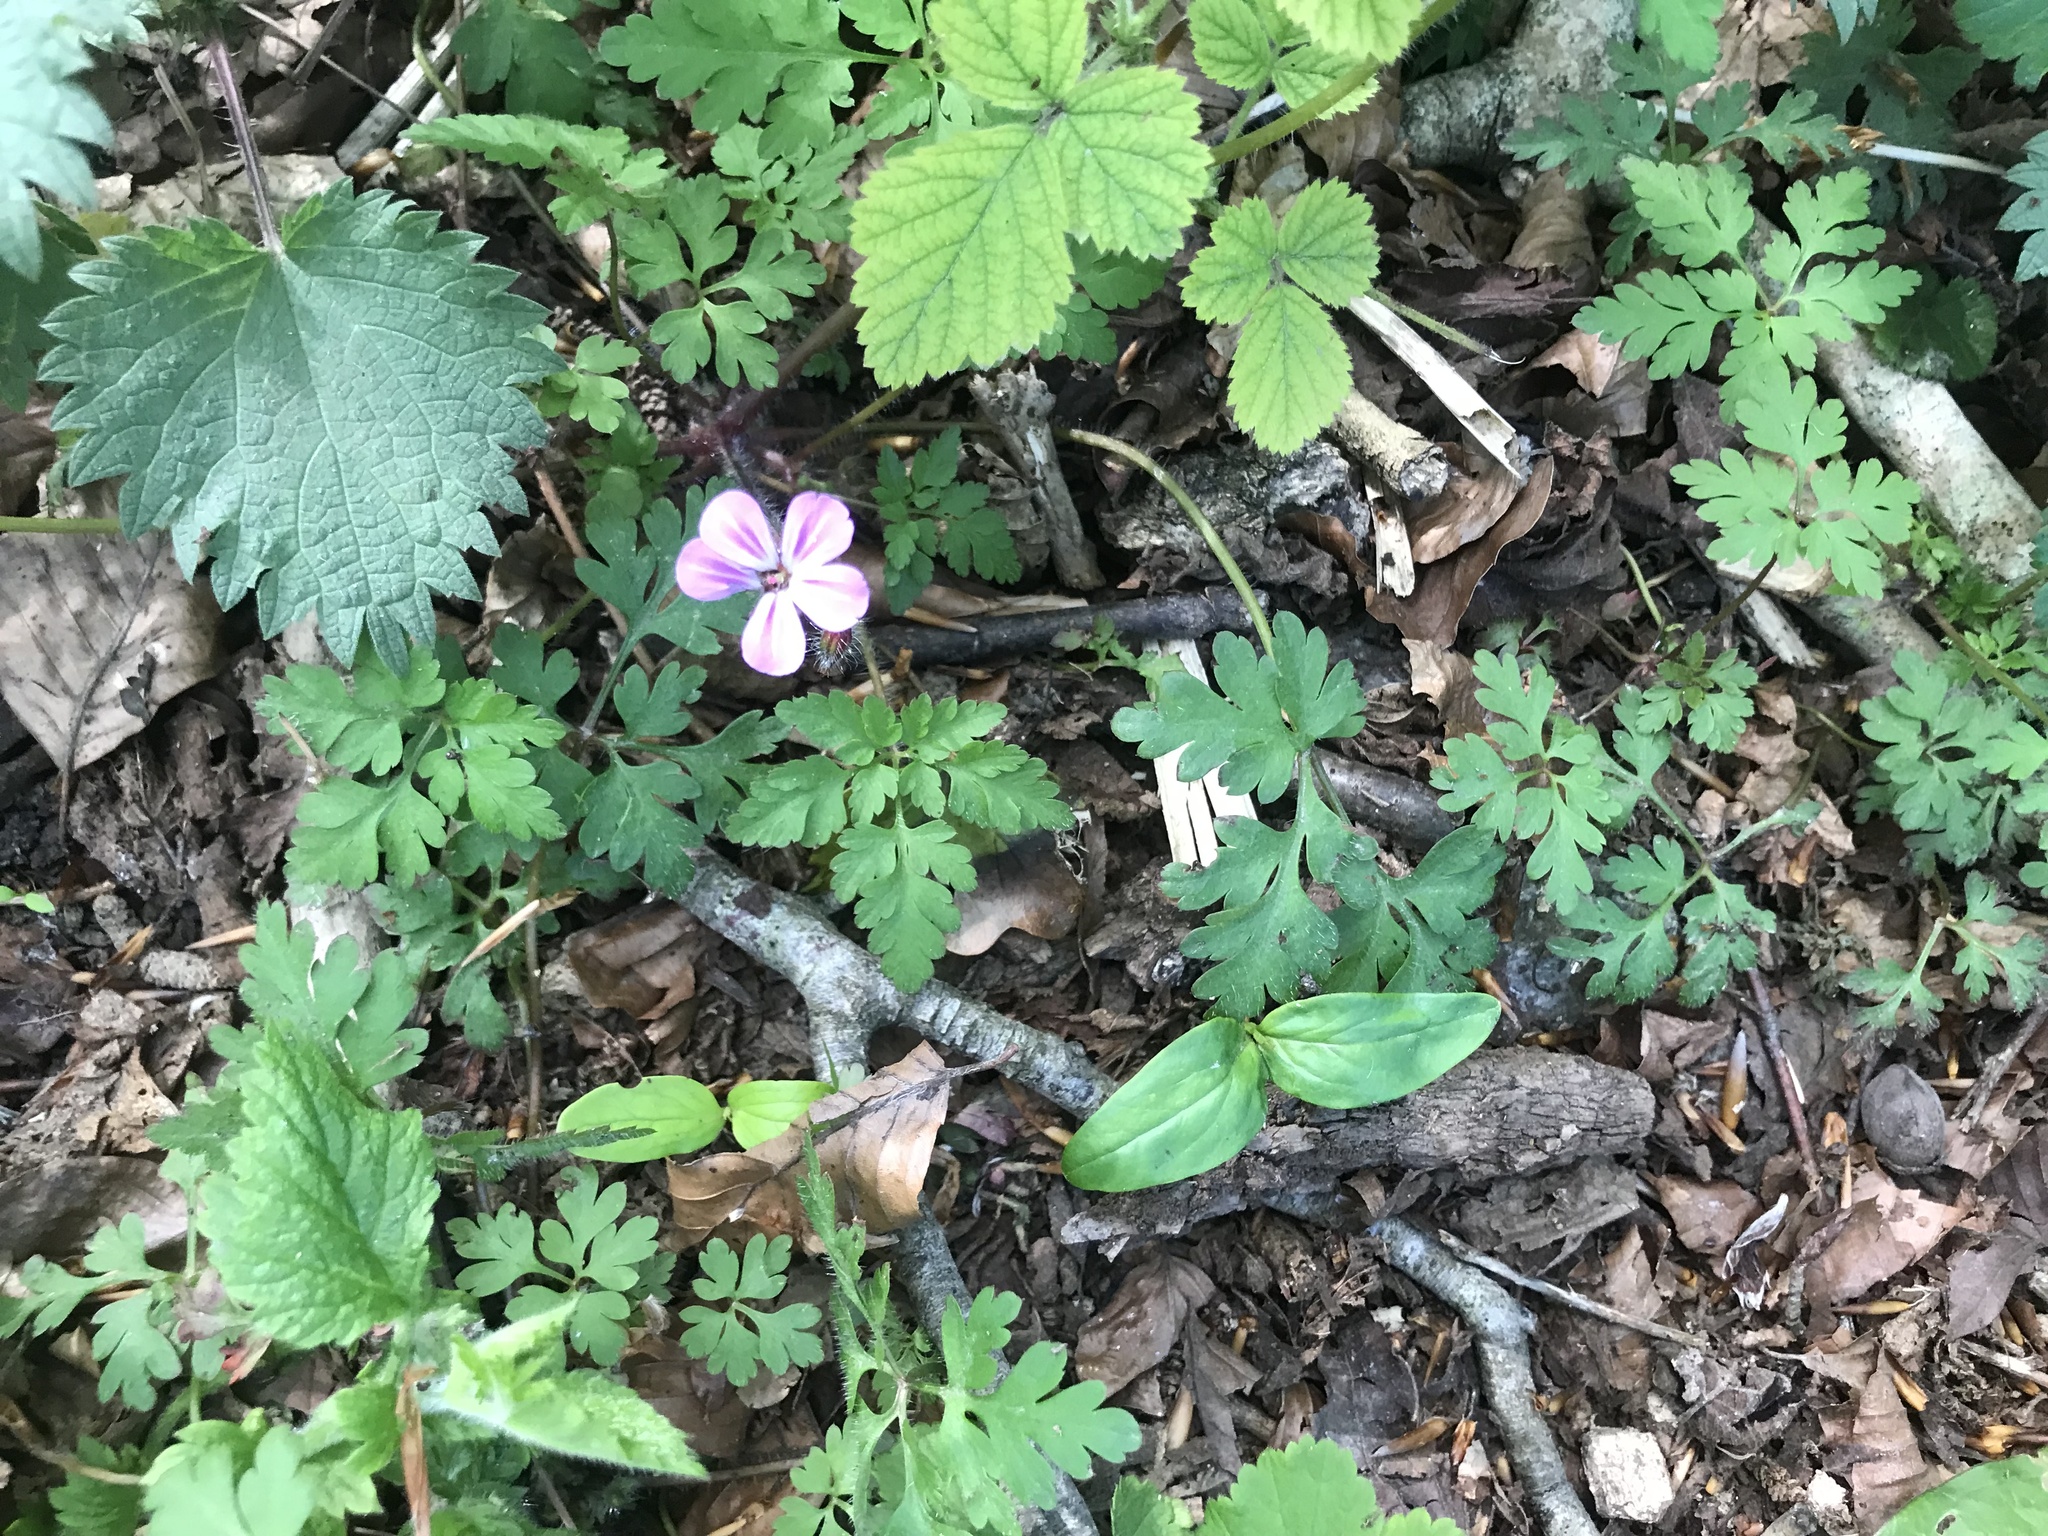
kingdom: Plantae
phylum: Tracheophyta
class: Magnoliopsida
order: Geraniales
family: Geraniaceae
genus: Geranium
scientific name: Geranium robertianum
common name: Herb-robert
